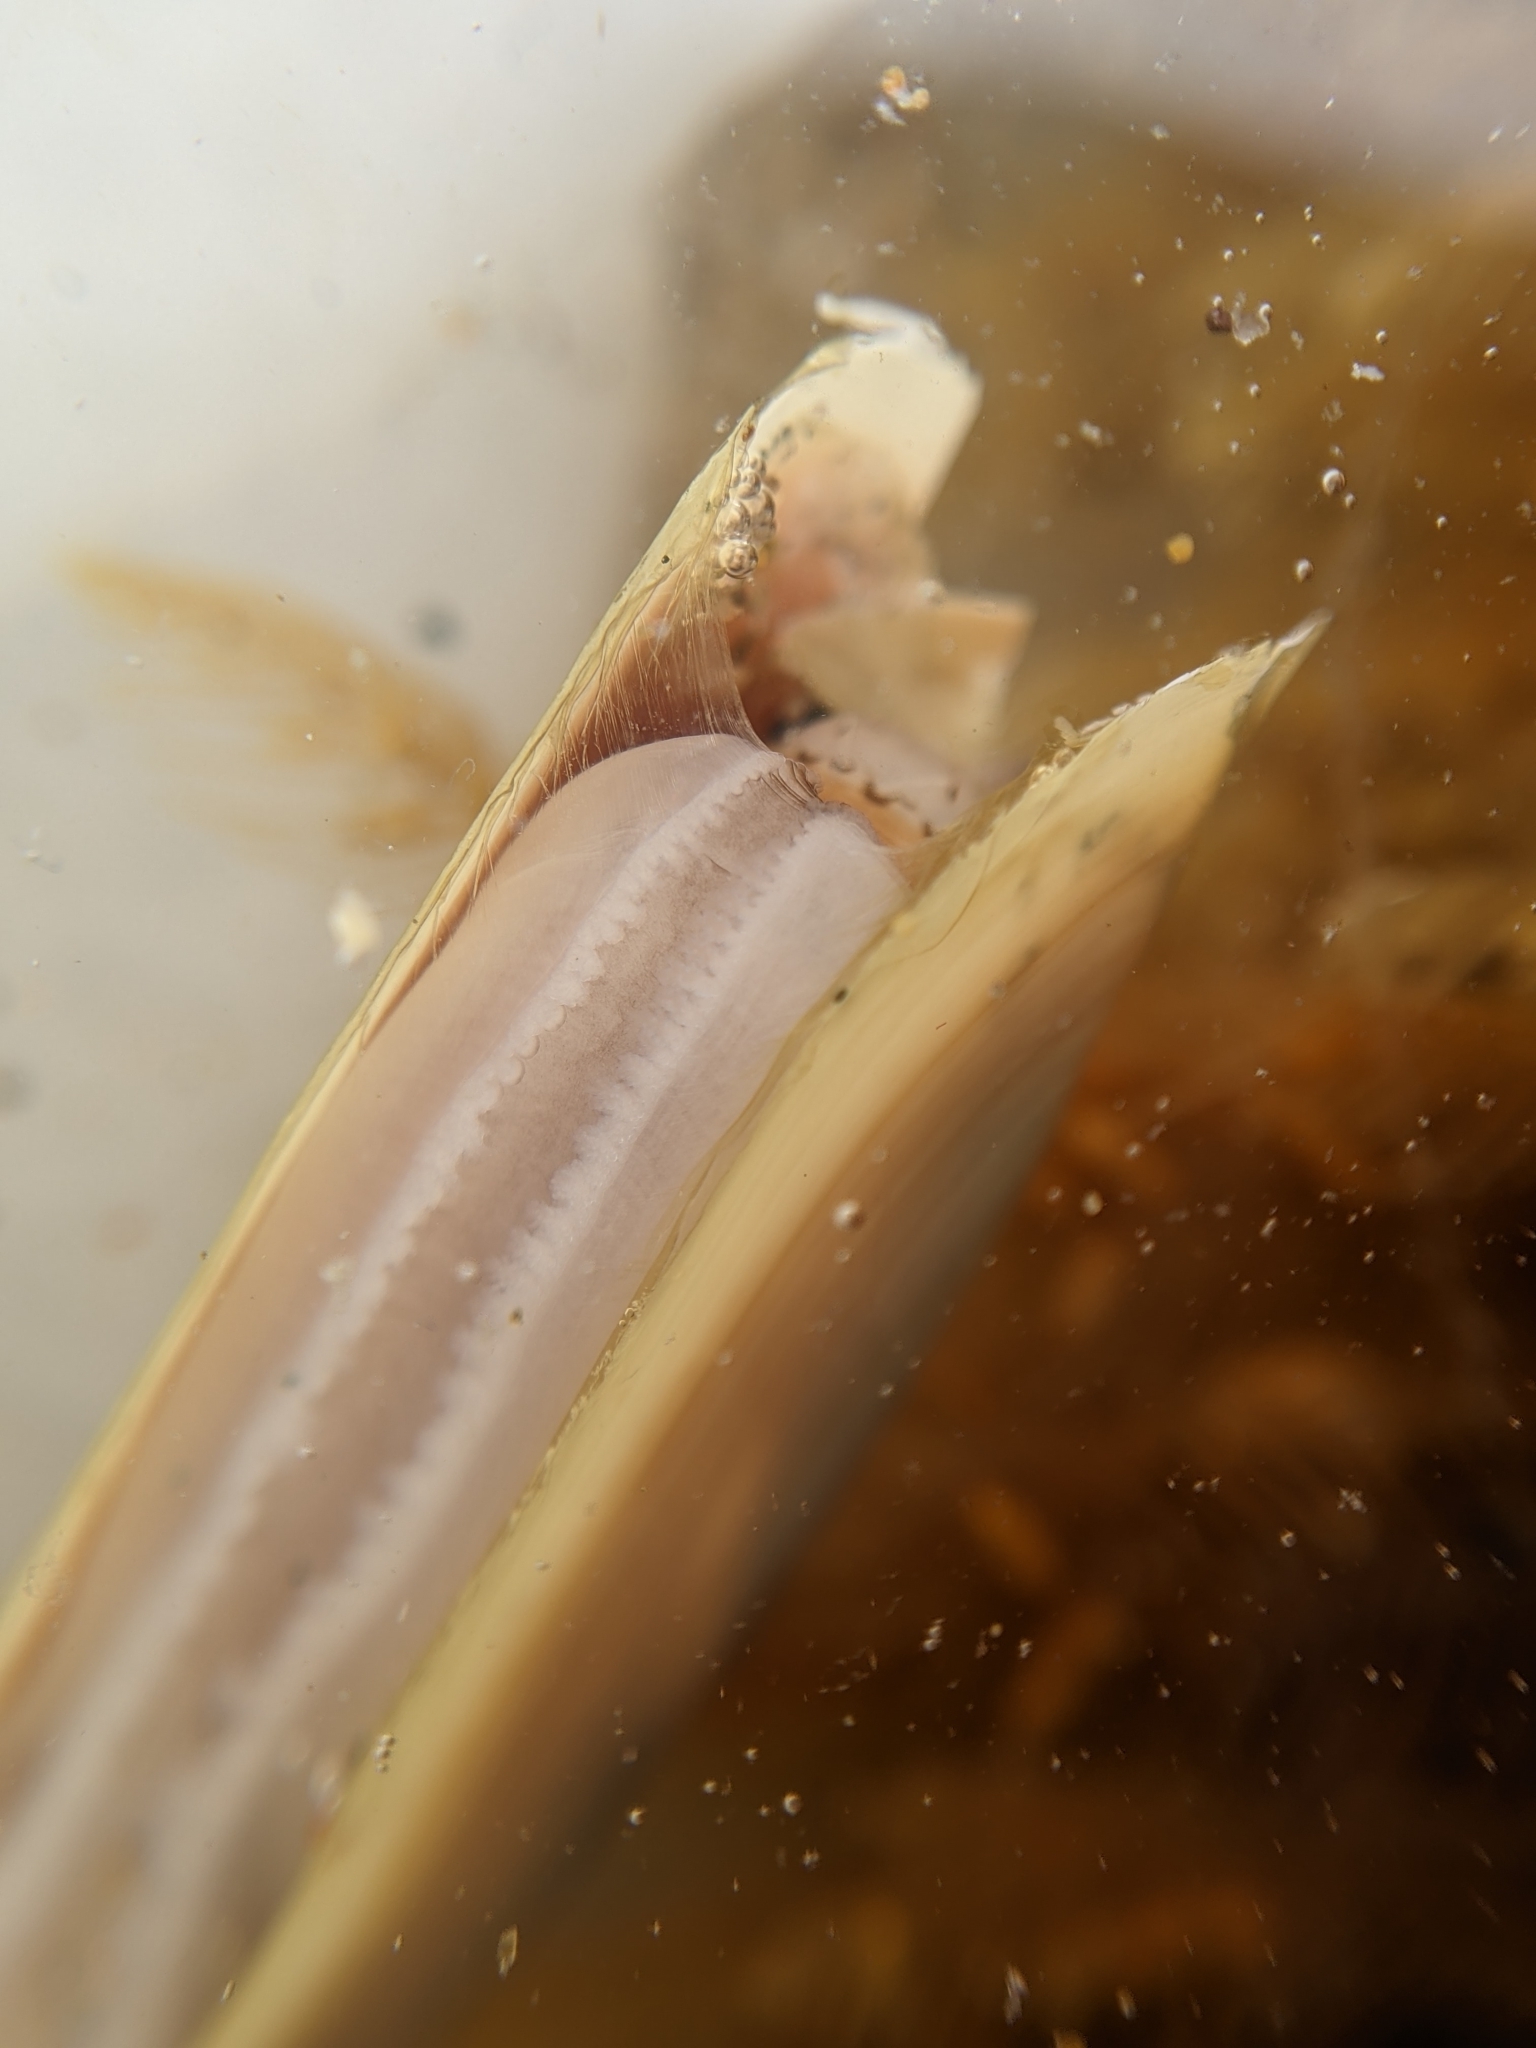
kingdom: Animalia
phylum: Mollusca
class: Bivalvia
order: Adapedonta
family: Pharidae
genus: Siliqua
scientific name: Siliqua lucida
